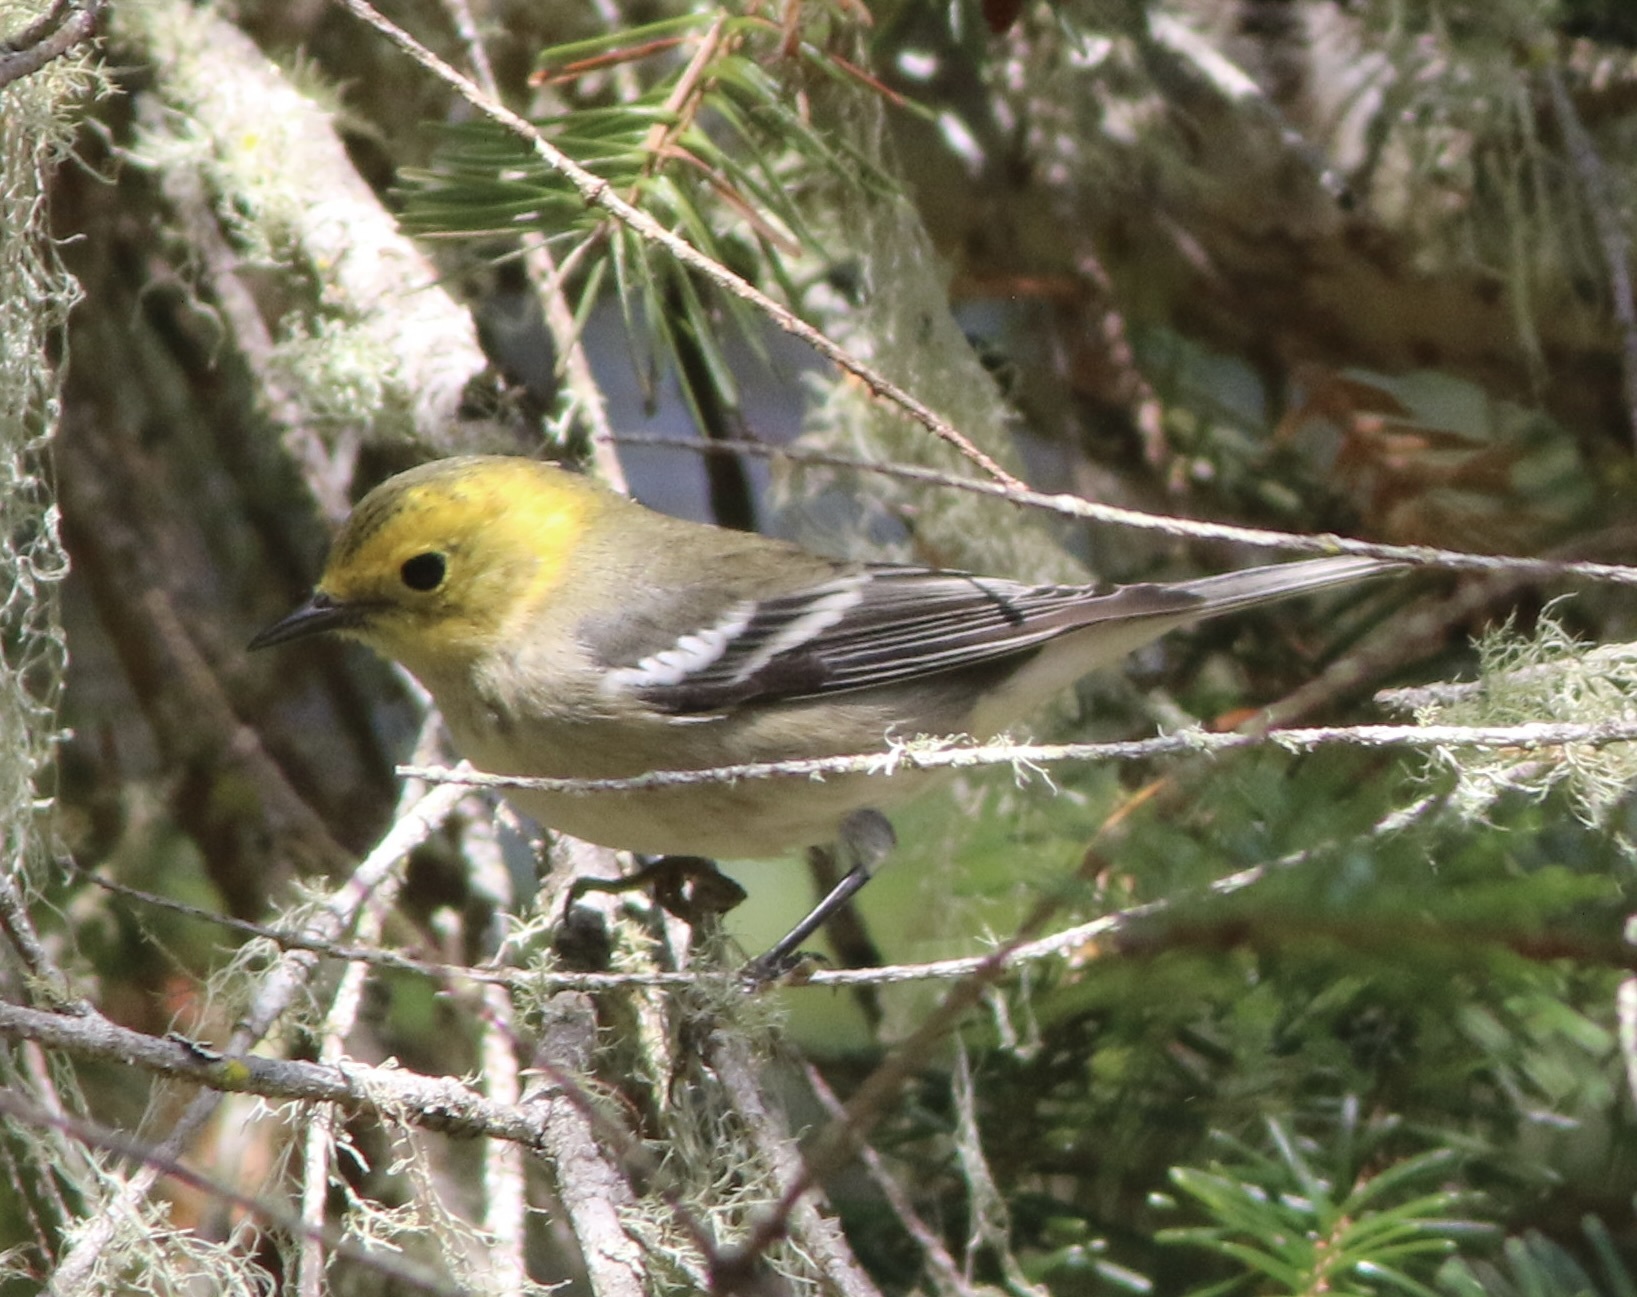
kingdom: Animalia
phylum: Chordata
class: Aves
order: Passeriformes
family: Parulidae
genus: Setophaga
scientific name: Setophaga occidentalis
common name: Hermit warbler
